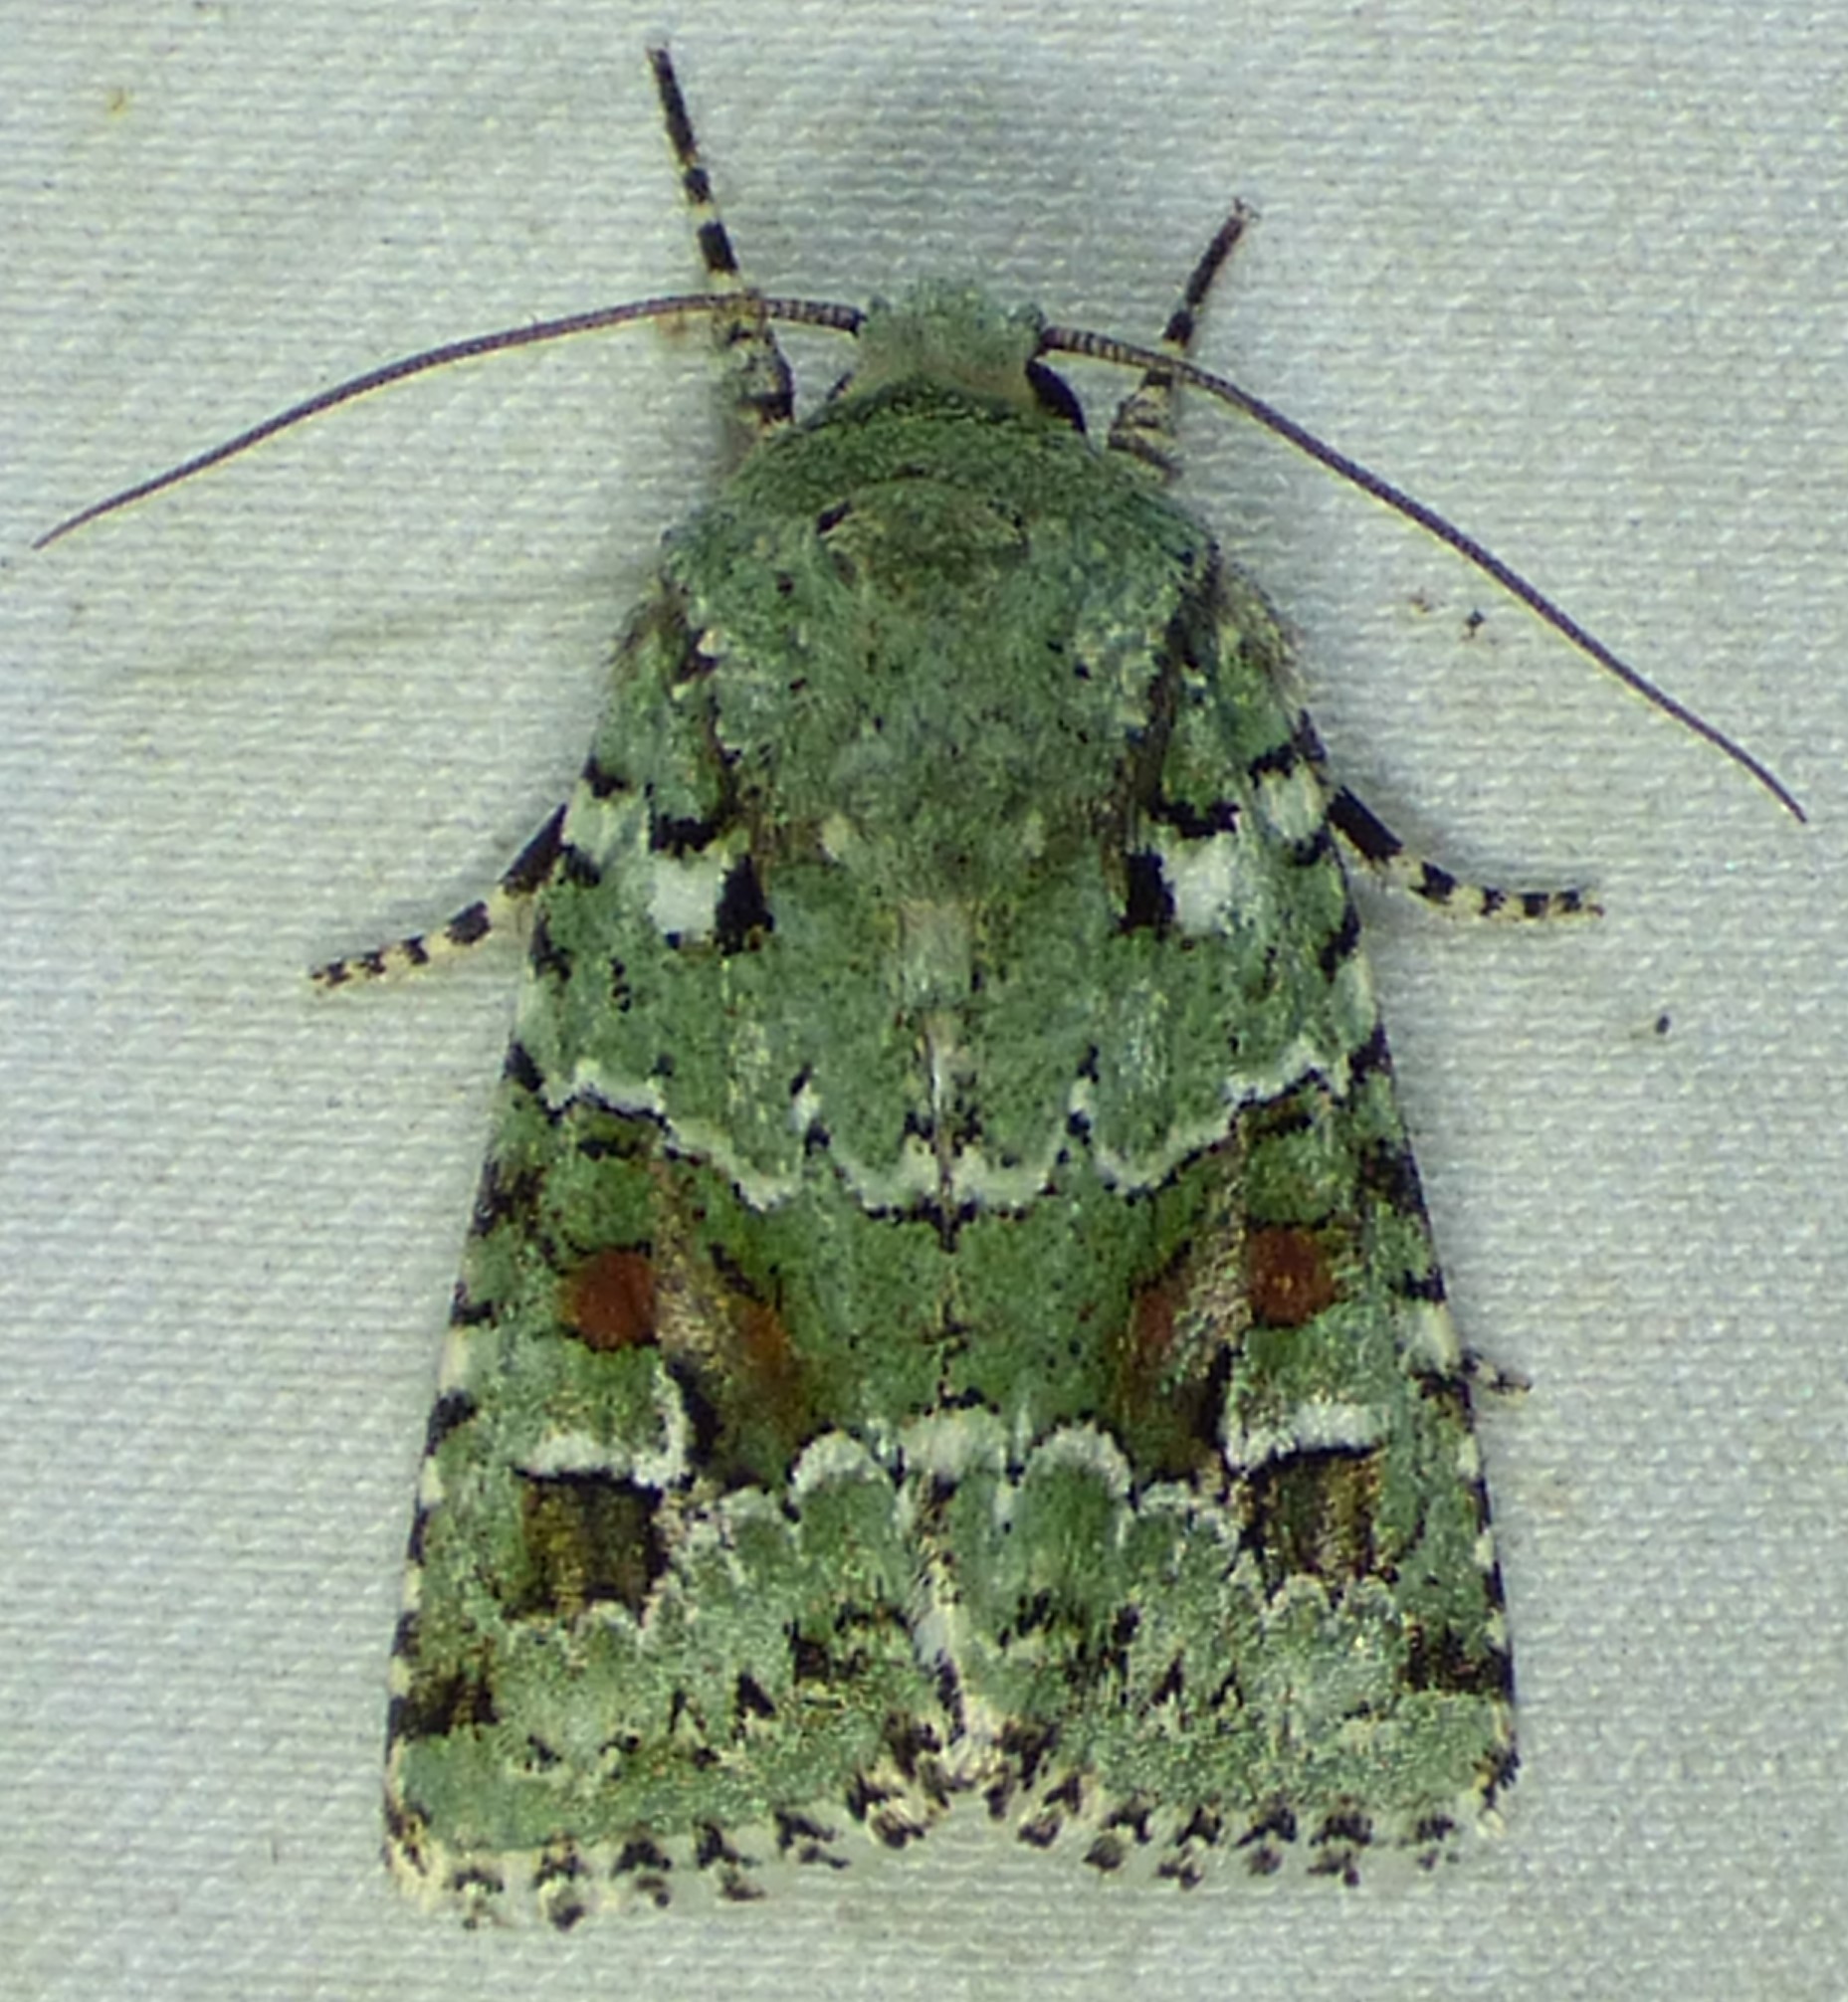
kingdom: Animalia
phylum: Arthropoda
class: Insecta
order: Lepidoptera
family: Noctuidae
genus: Lacinipolia
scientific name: Lacinipolia laudabilis
